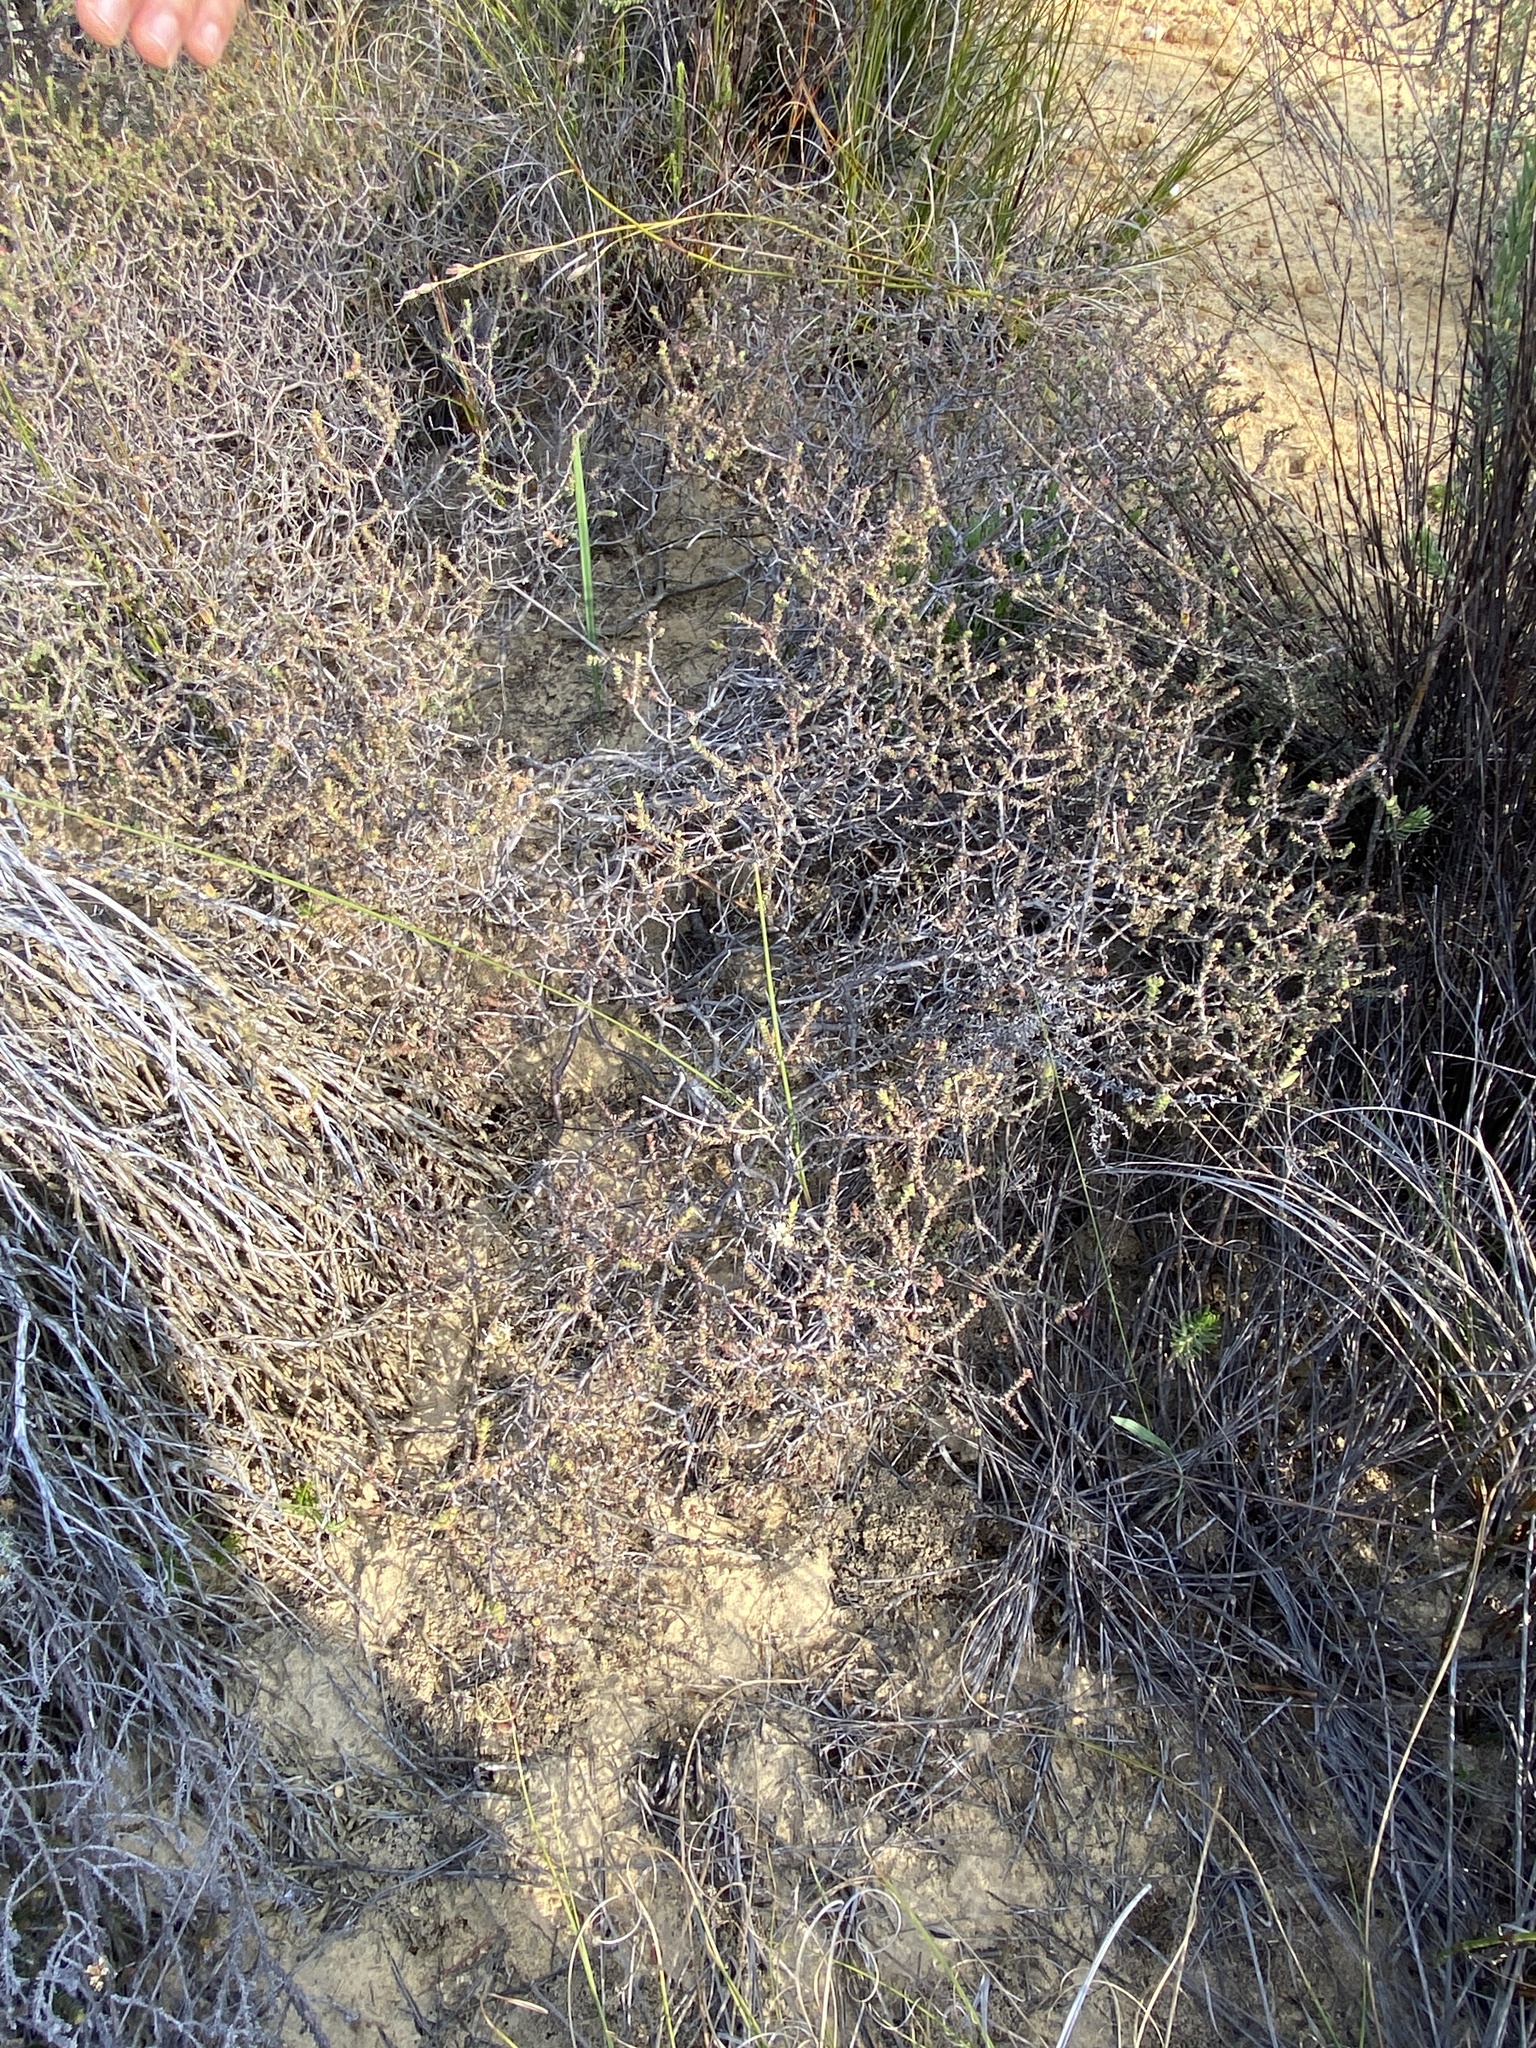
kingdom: Plantae
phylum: Tracheophyta
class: Magnoliopsida
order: Sapindales
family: Rutaceae
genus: Macrostylis
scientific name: Macrostylis squarrosa
